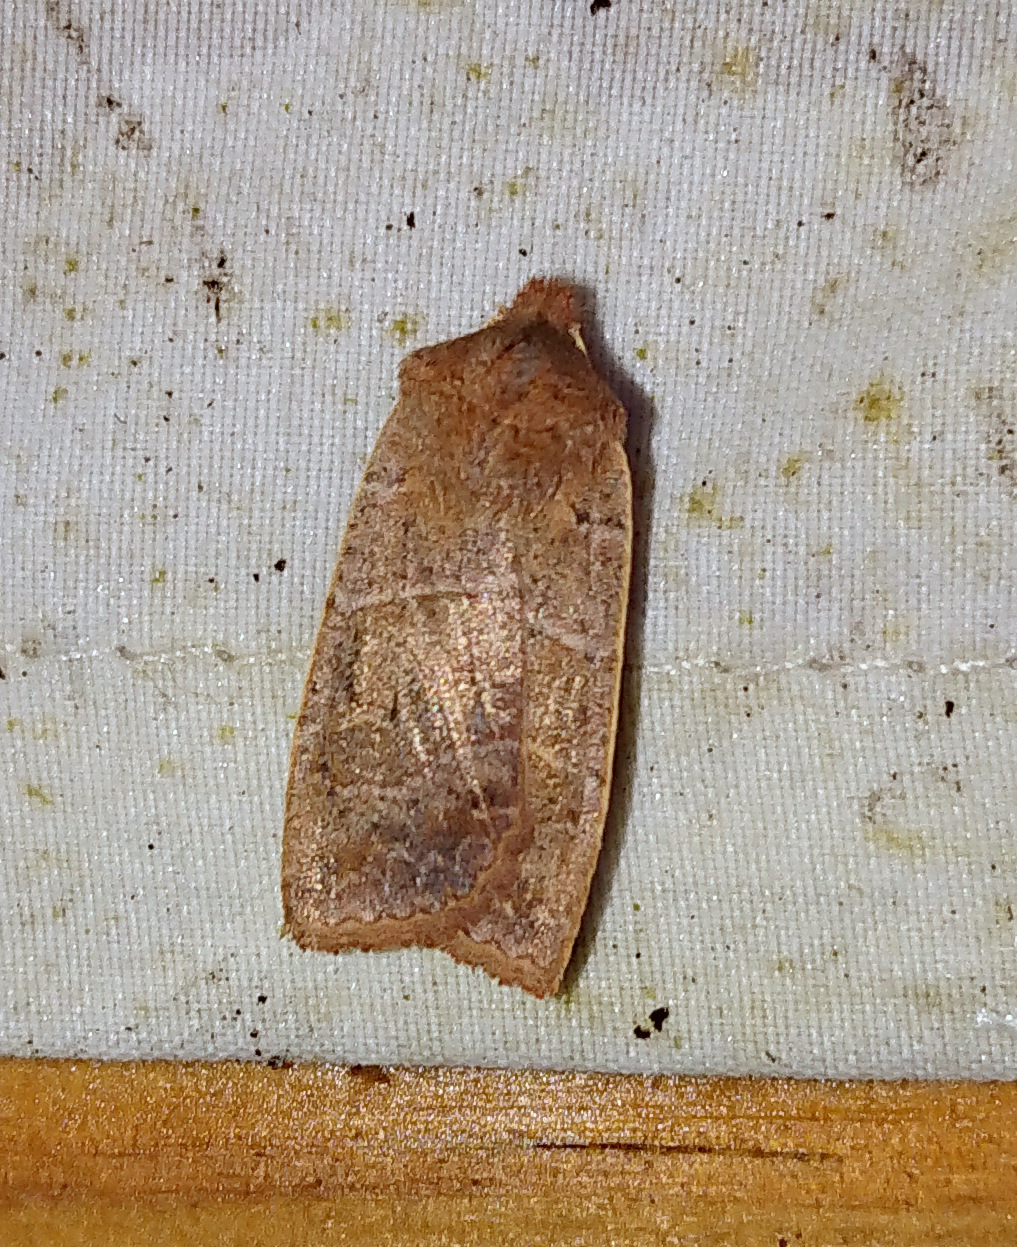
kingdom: Animalia
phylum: Arthropoda
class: Insecta
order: Lepidoptera
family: Noctuidae
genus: Eupsilia
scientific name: Eupsilia morrisoni
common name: Morrison's sallow
